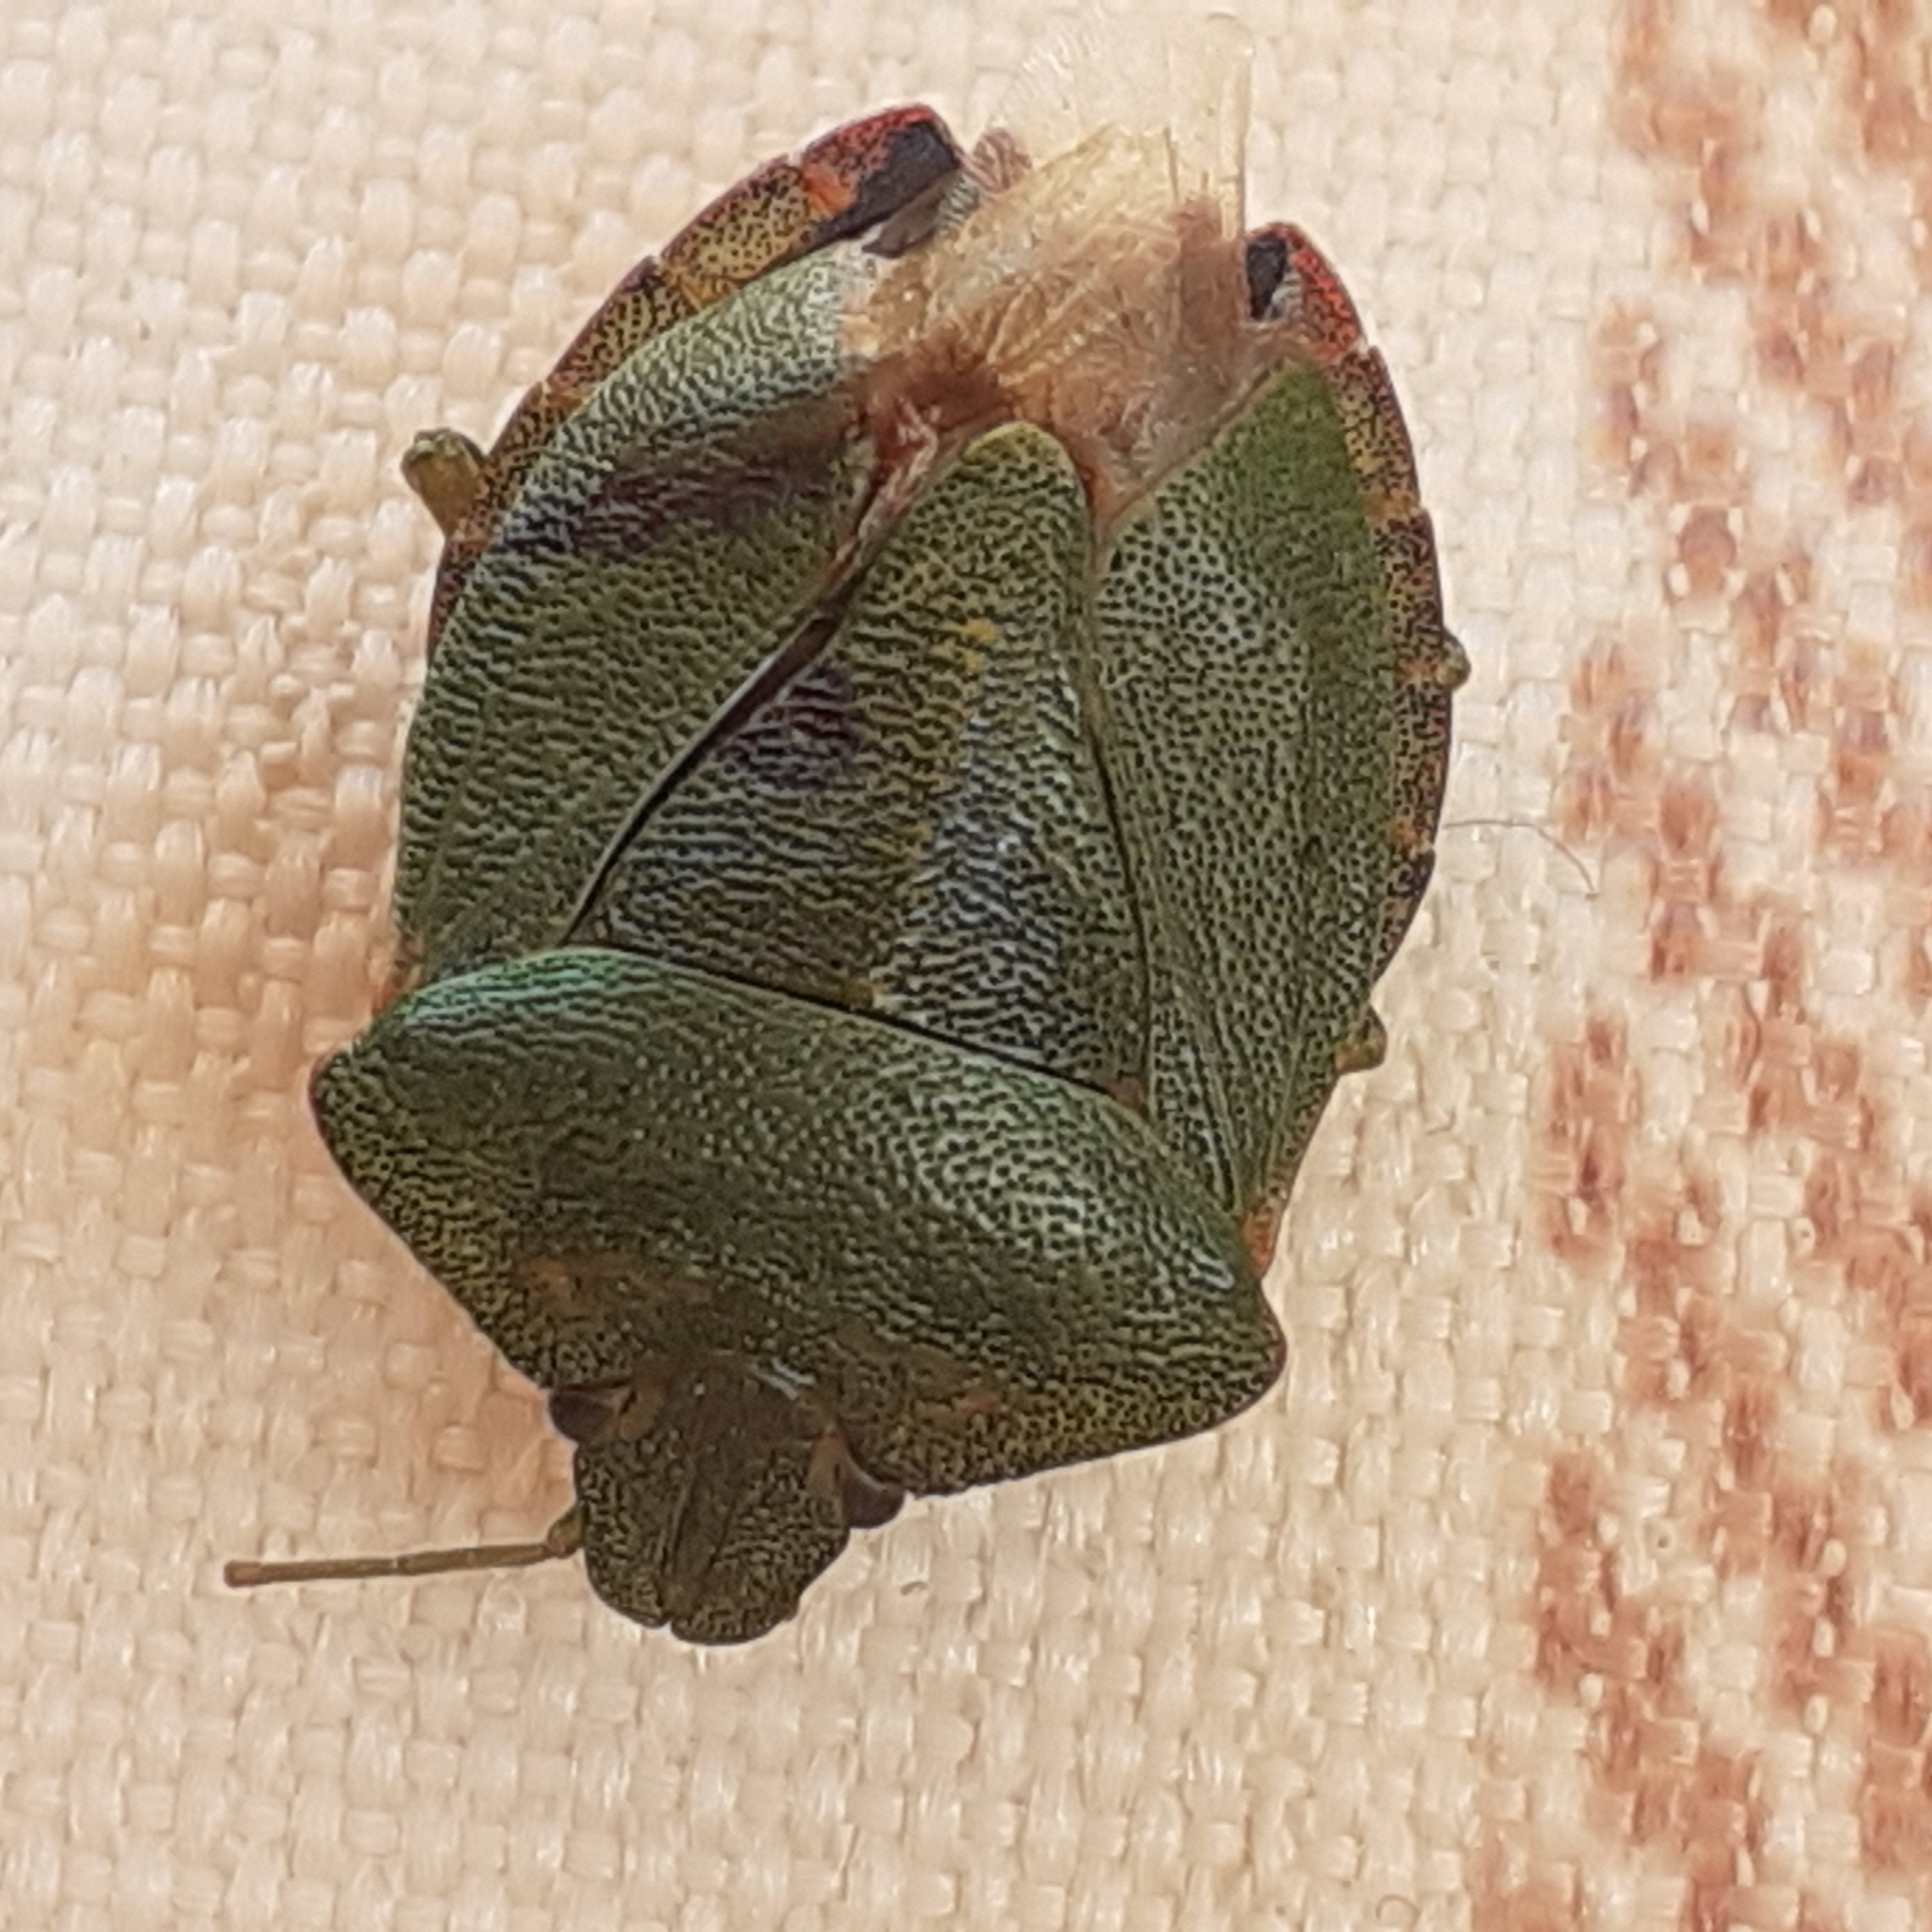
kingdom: Animalia
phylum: Arthropoda
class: Insecta
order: Hemiptera
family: Pentatomidae
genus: Palomena
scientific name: Palomena prasina
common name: Green shieldbug
